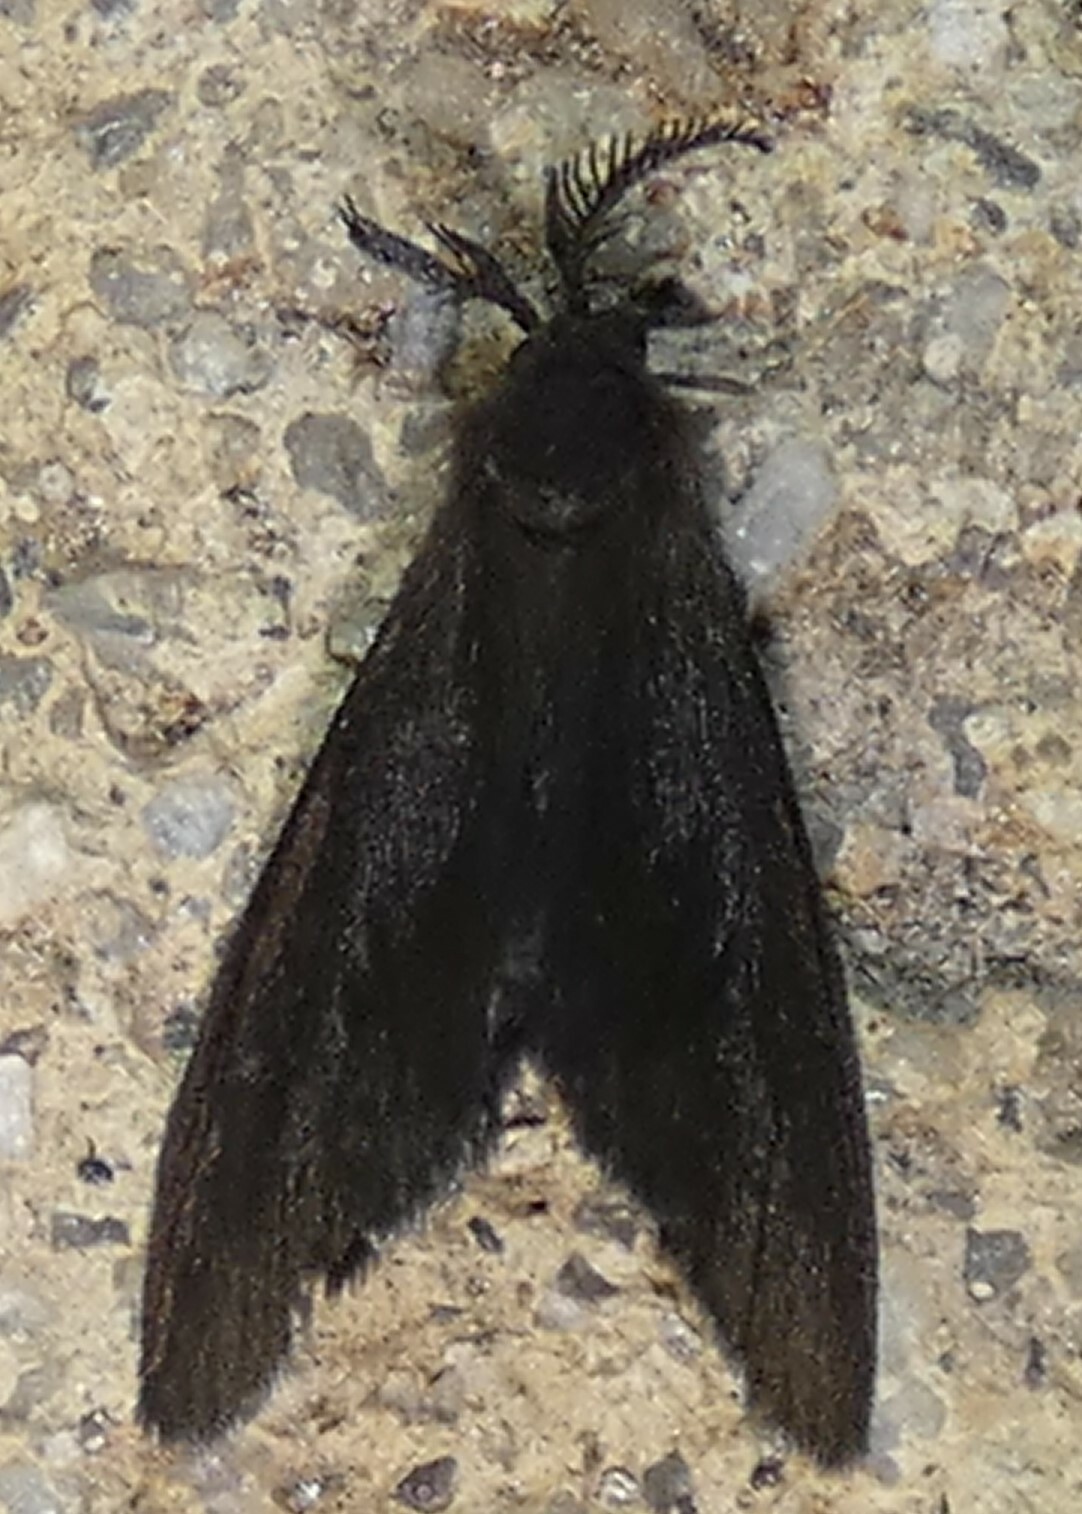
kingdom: Animalia
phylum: Arthropoda
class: Insecta
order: Lepidoptera
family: Psychidae
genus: Cryptothelea
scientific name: Cryptothelea gloverii
